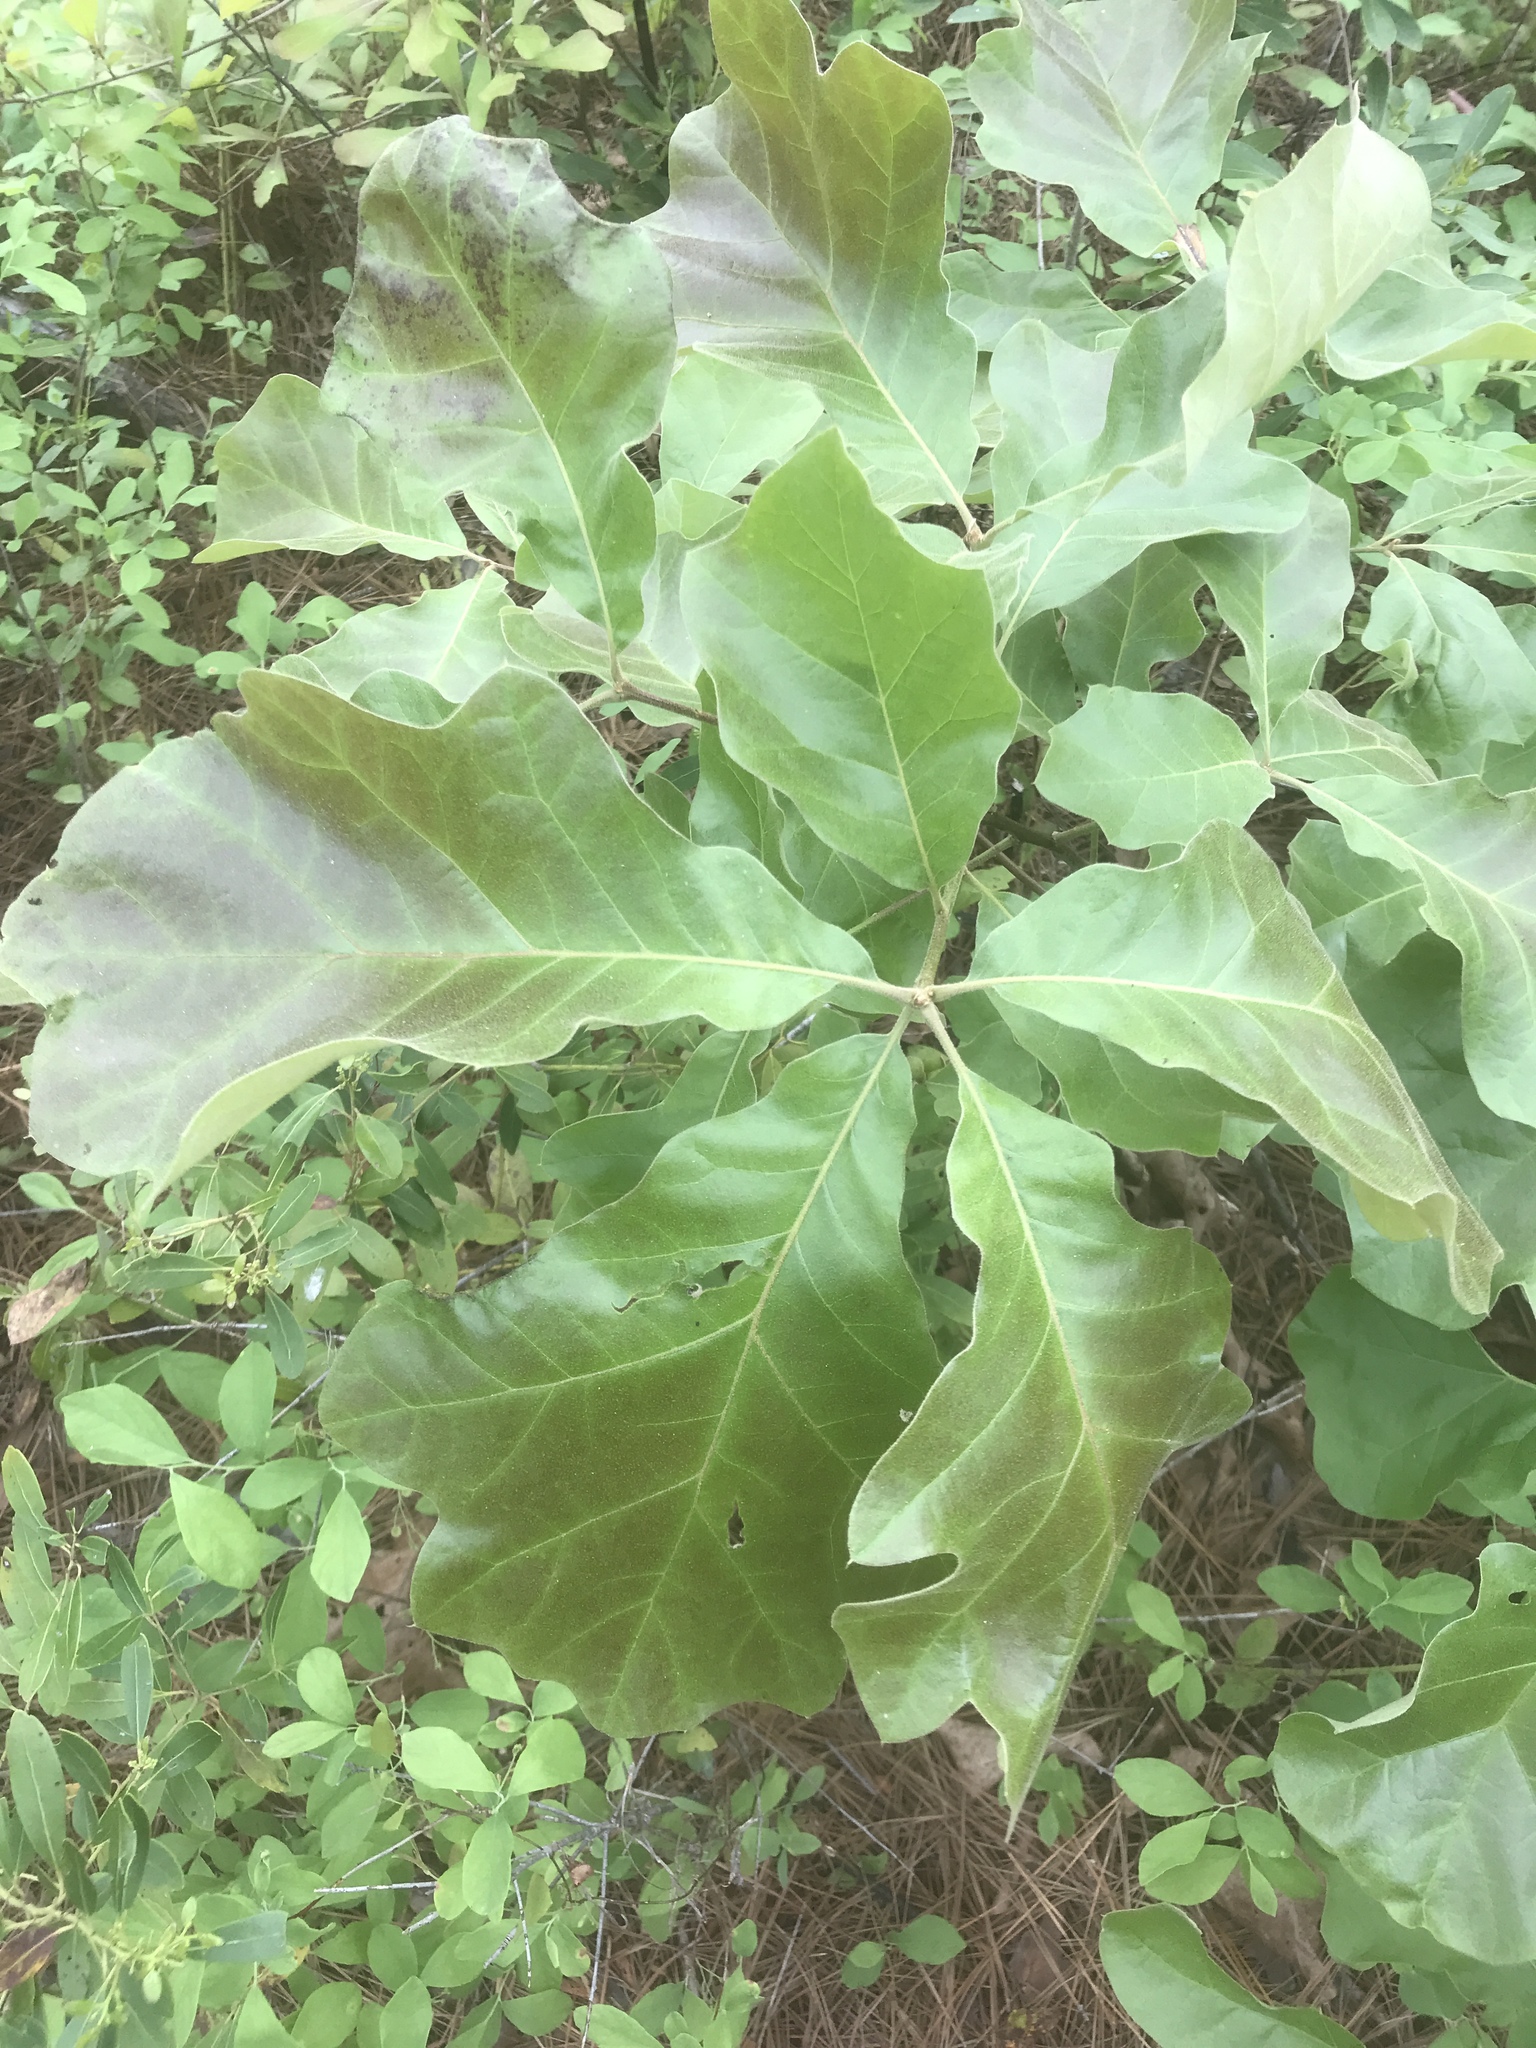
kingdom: Plantae
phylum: Tracheophyta
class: Magnoliopsida
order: Fagales
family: Fagaceae
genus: Quercus
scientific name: Quercus velutina
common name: Black oak
